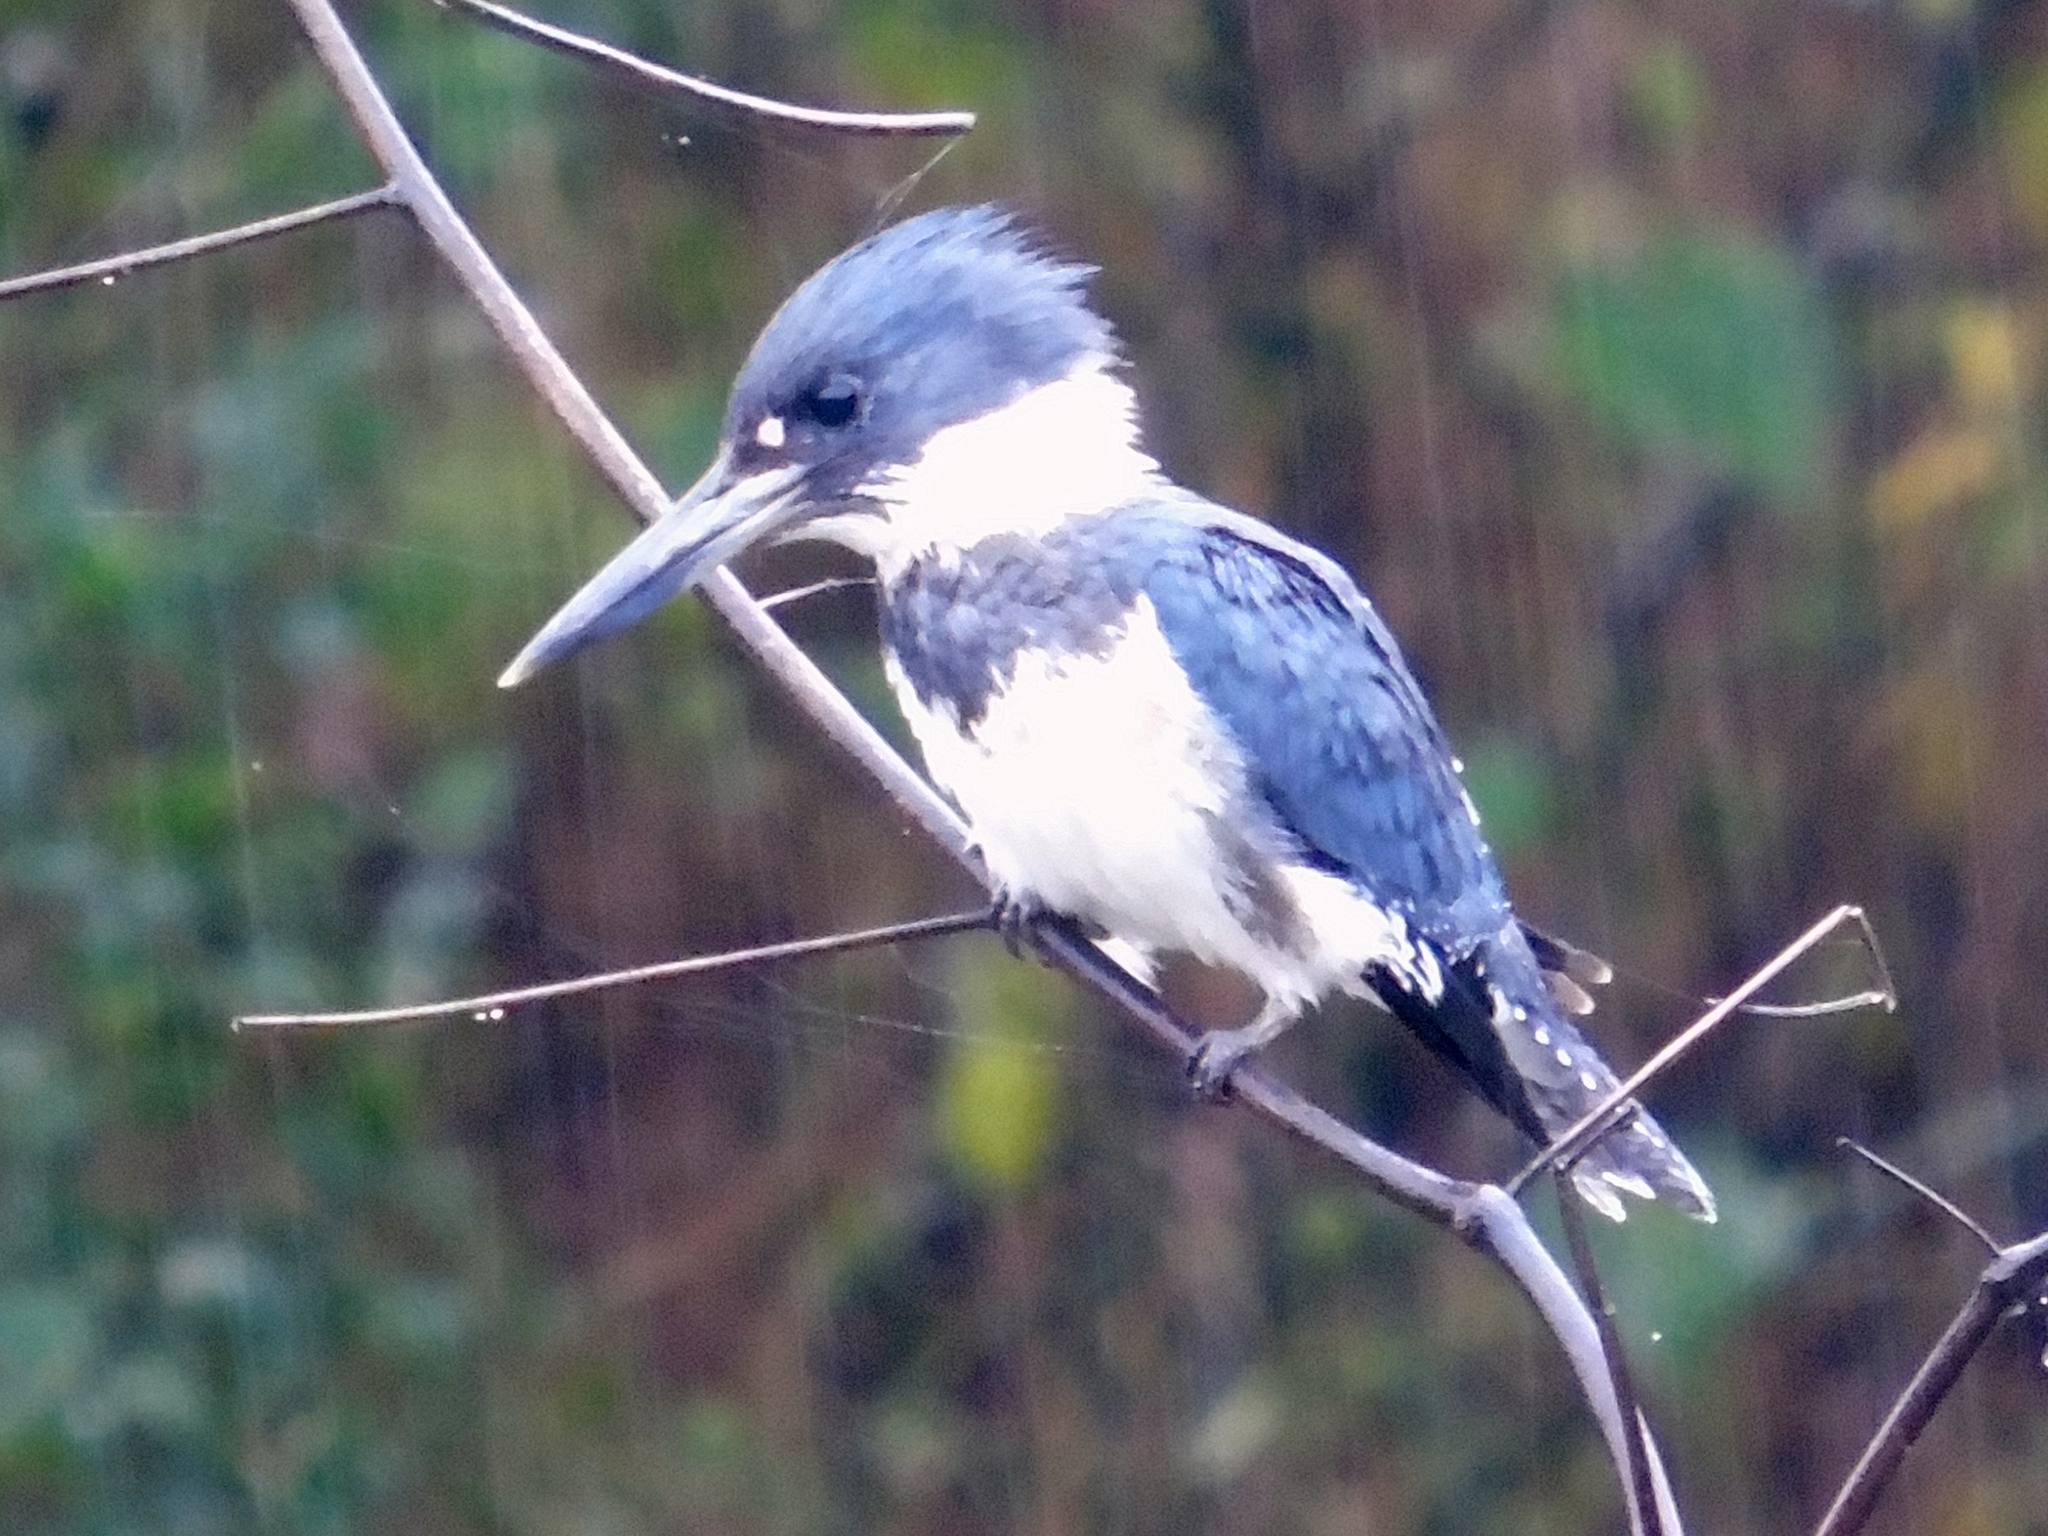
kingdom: Animalia
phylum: Chordata
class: Aves
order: Coraciiformes
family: Alcedinidae
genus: Megaceryle
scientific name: Megaceryle alcyon
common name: Belted kingfisher
